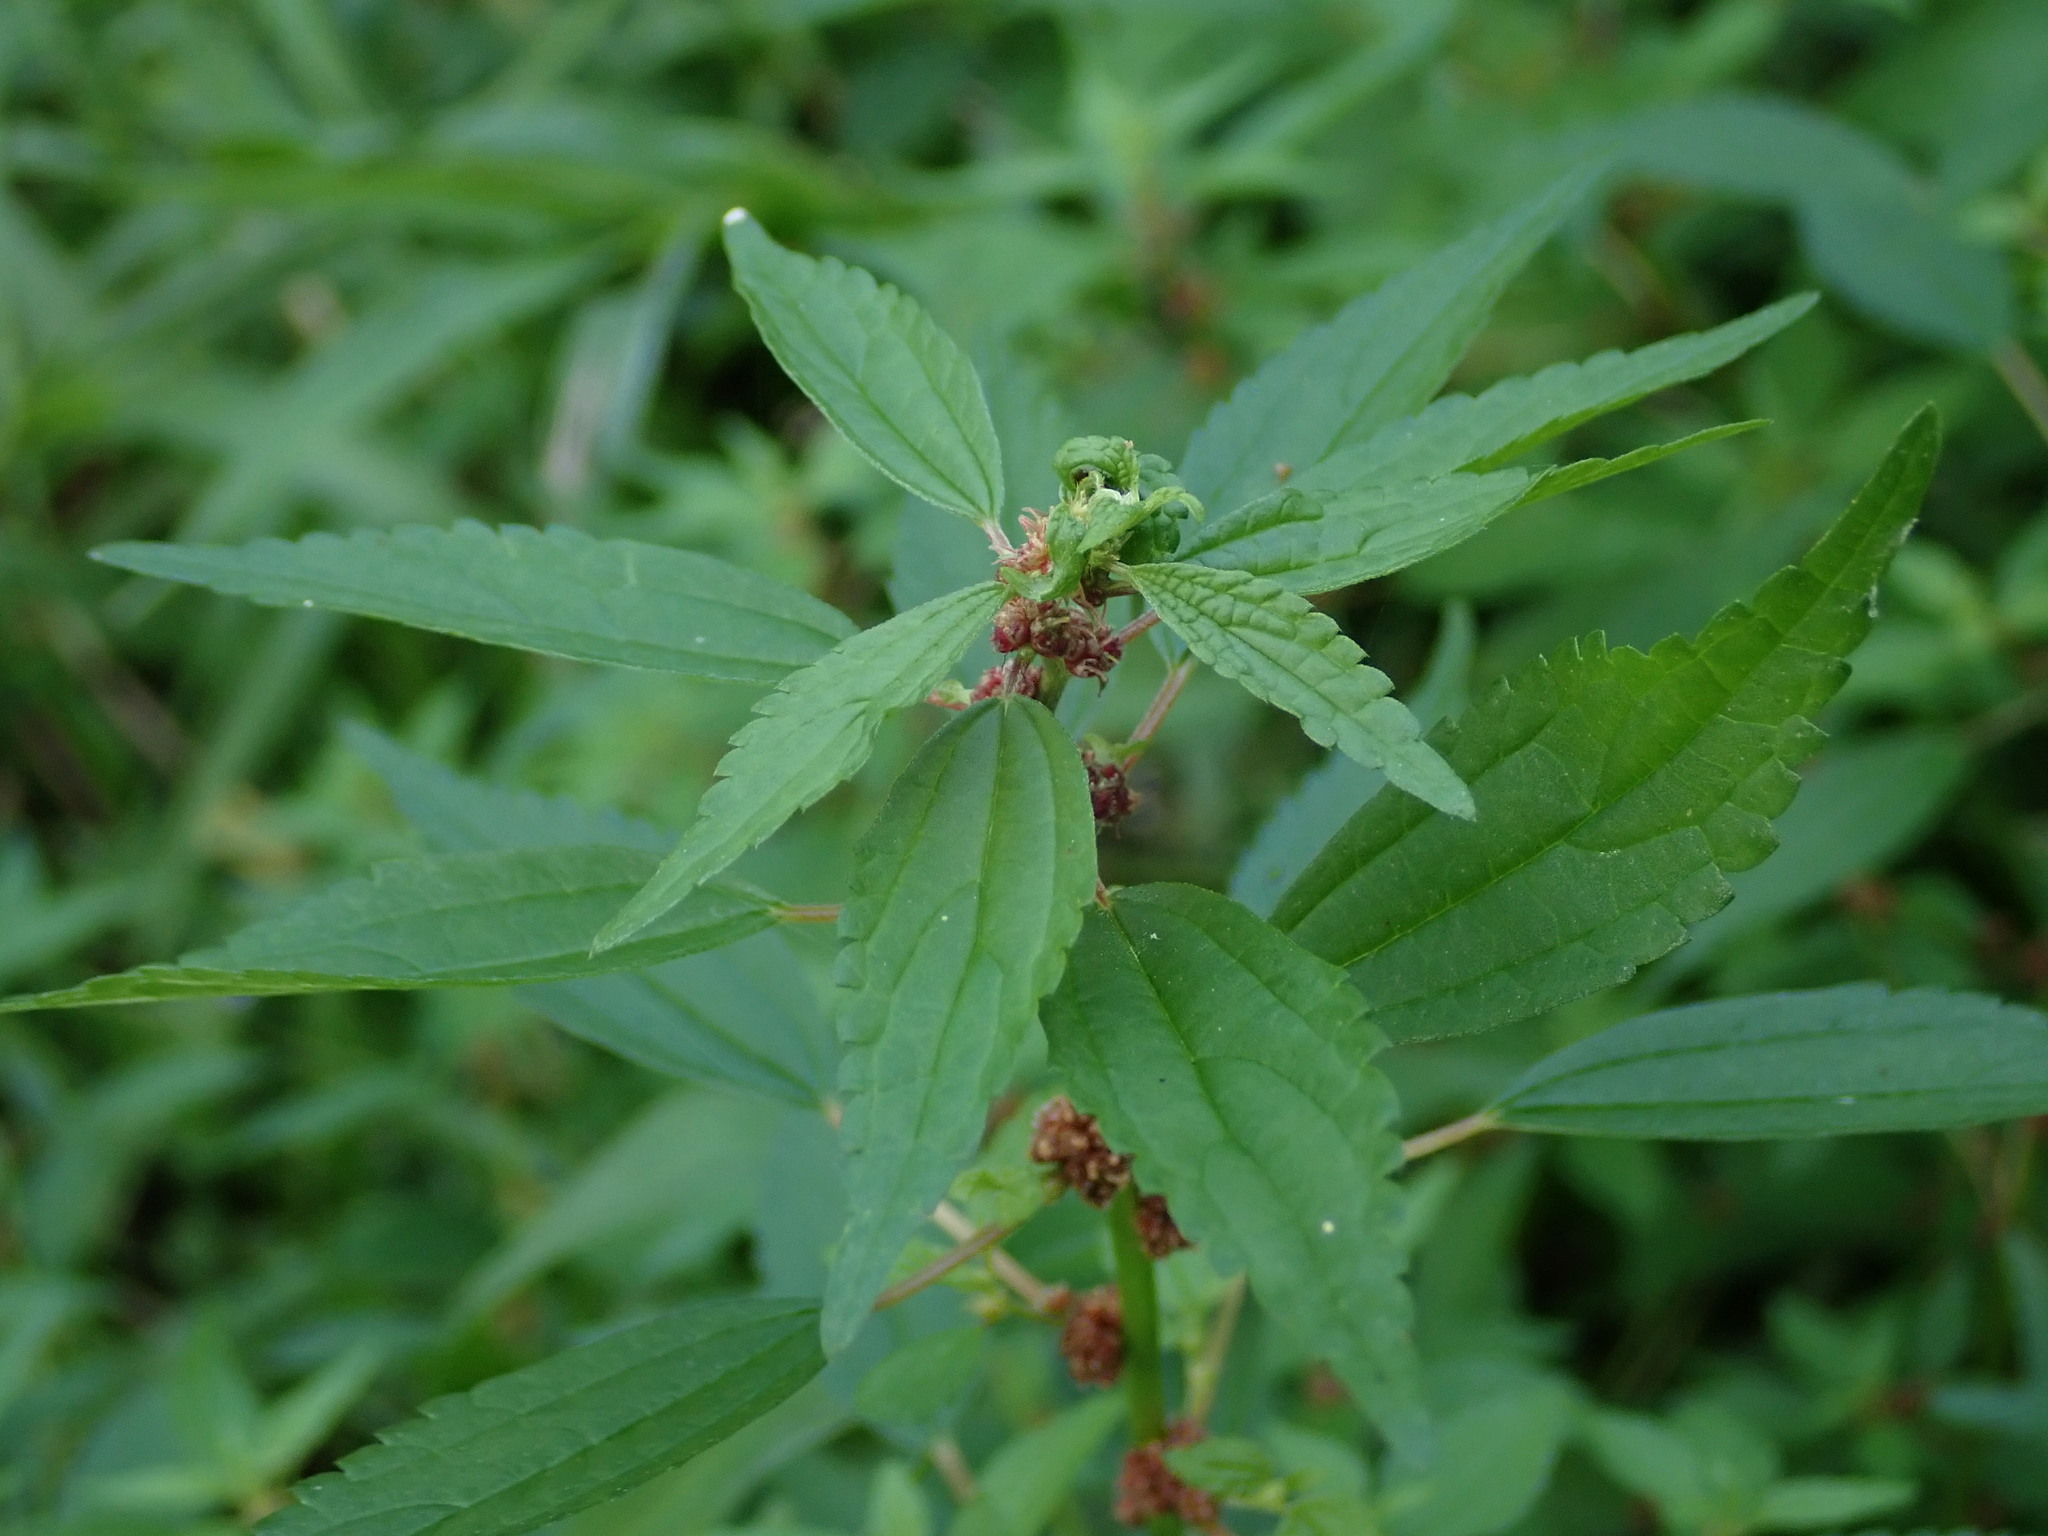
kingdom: Plantae
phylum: Tracheophyta
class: Magnoliopsida
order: Rosales
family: Urticaceae
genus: Phenax
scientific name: Phenax sonneratii
